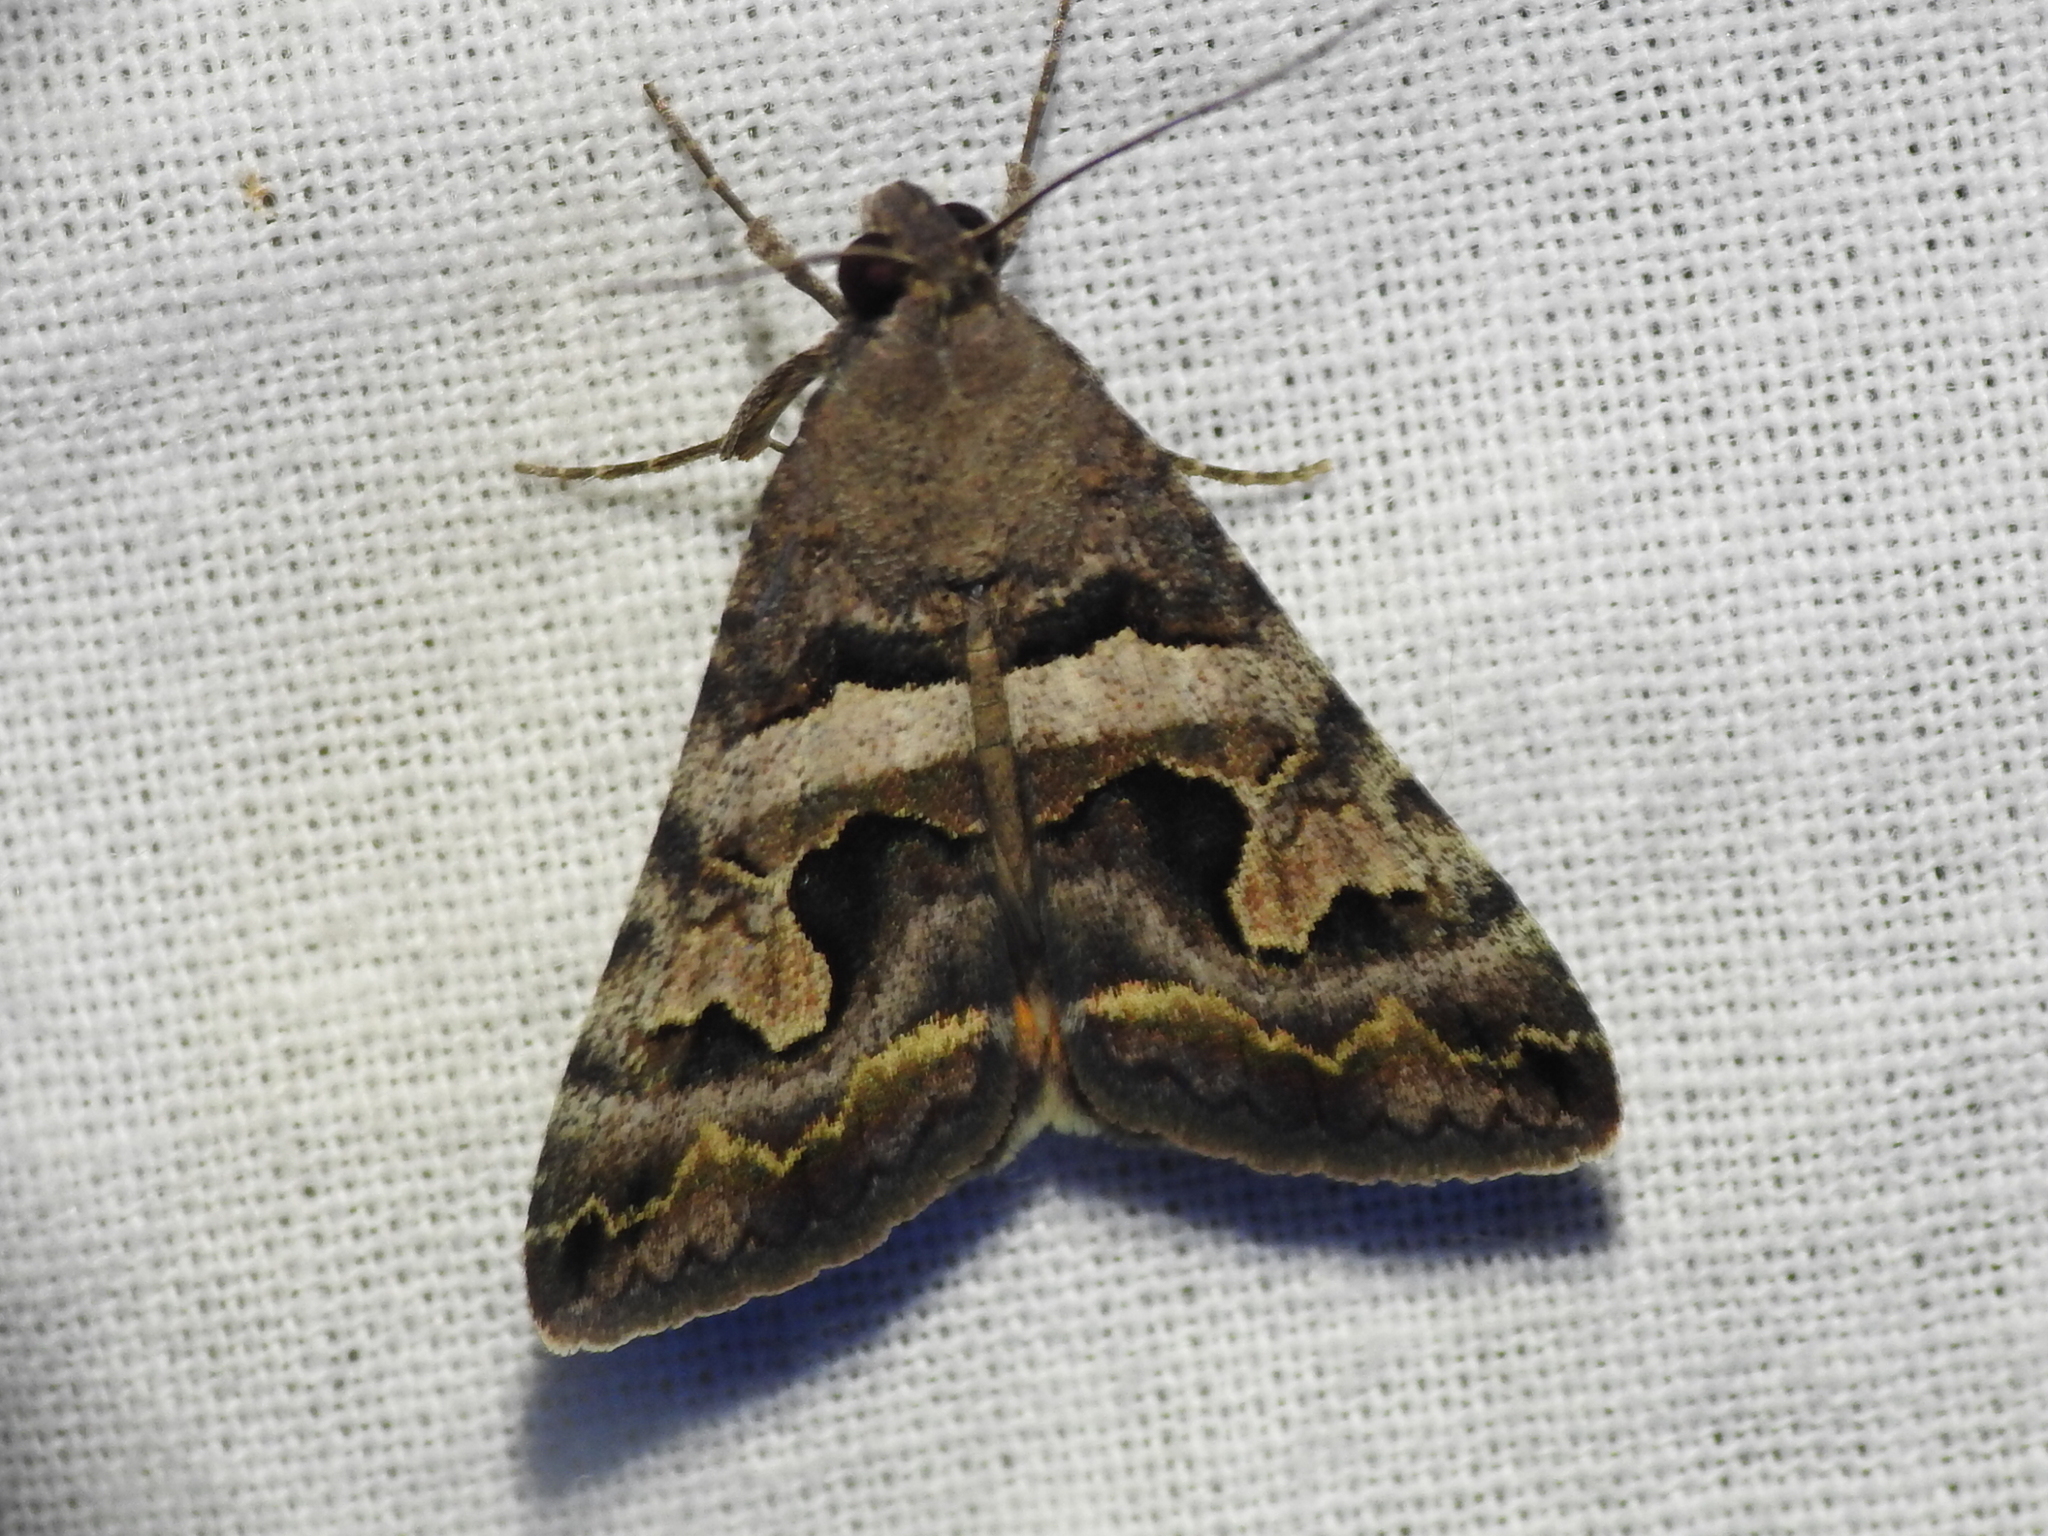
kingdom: Animalia
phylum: Arthropoda
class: Insecta
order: Lepidoptera
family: Erebidae
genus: Bulia
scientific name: Bulia deducta
